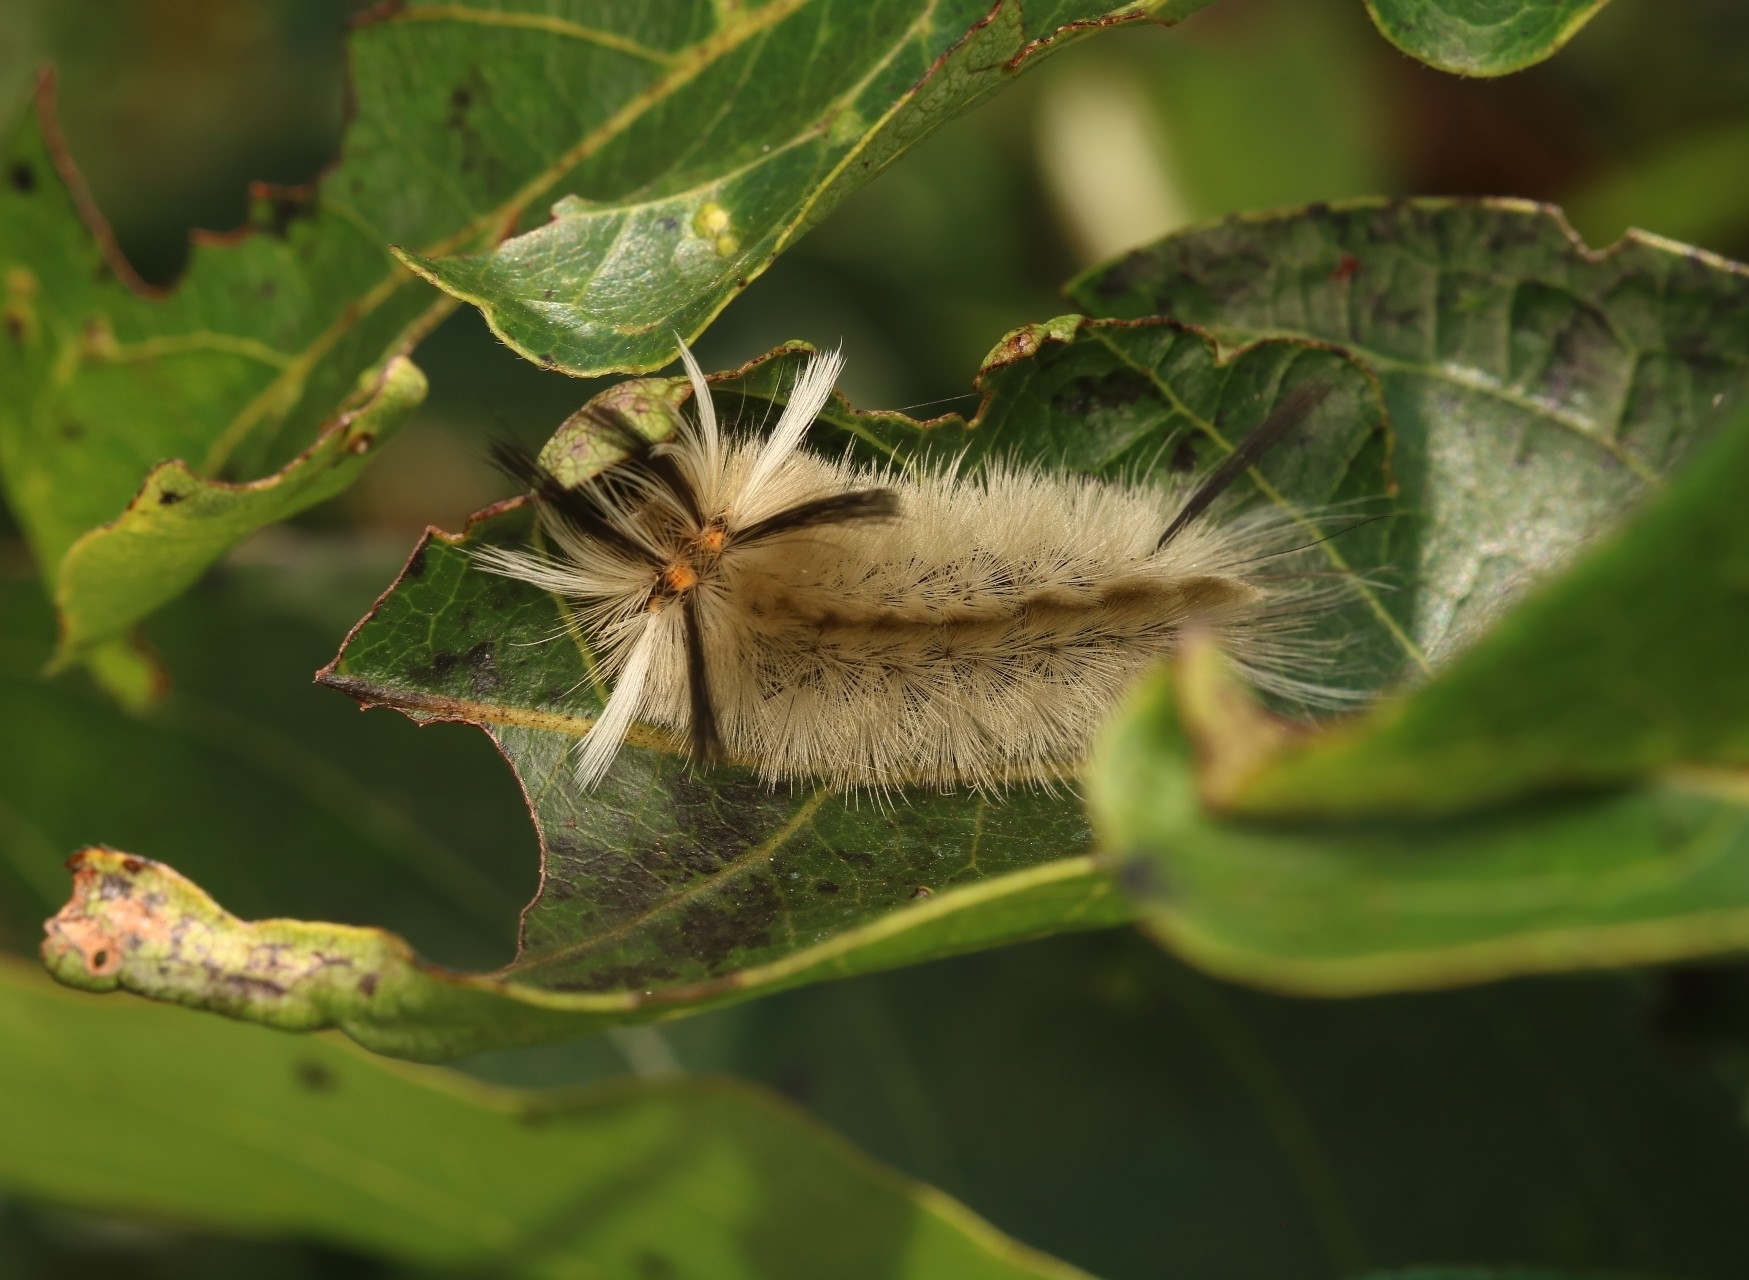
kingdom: Animalia
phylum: Arthropoda
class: Insecta
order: Lepidoptera
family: Erebidae
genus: Halysidota
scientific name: Halysidota tessellaris
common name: Banded tussock moth
